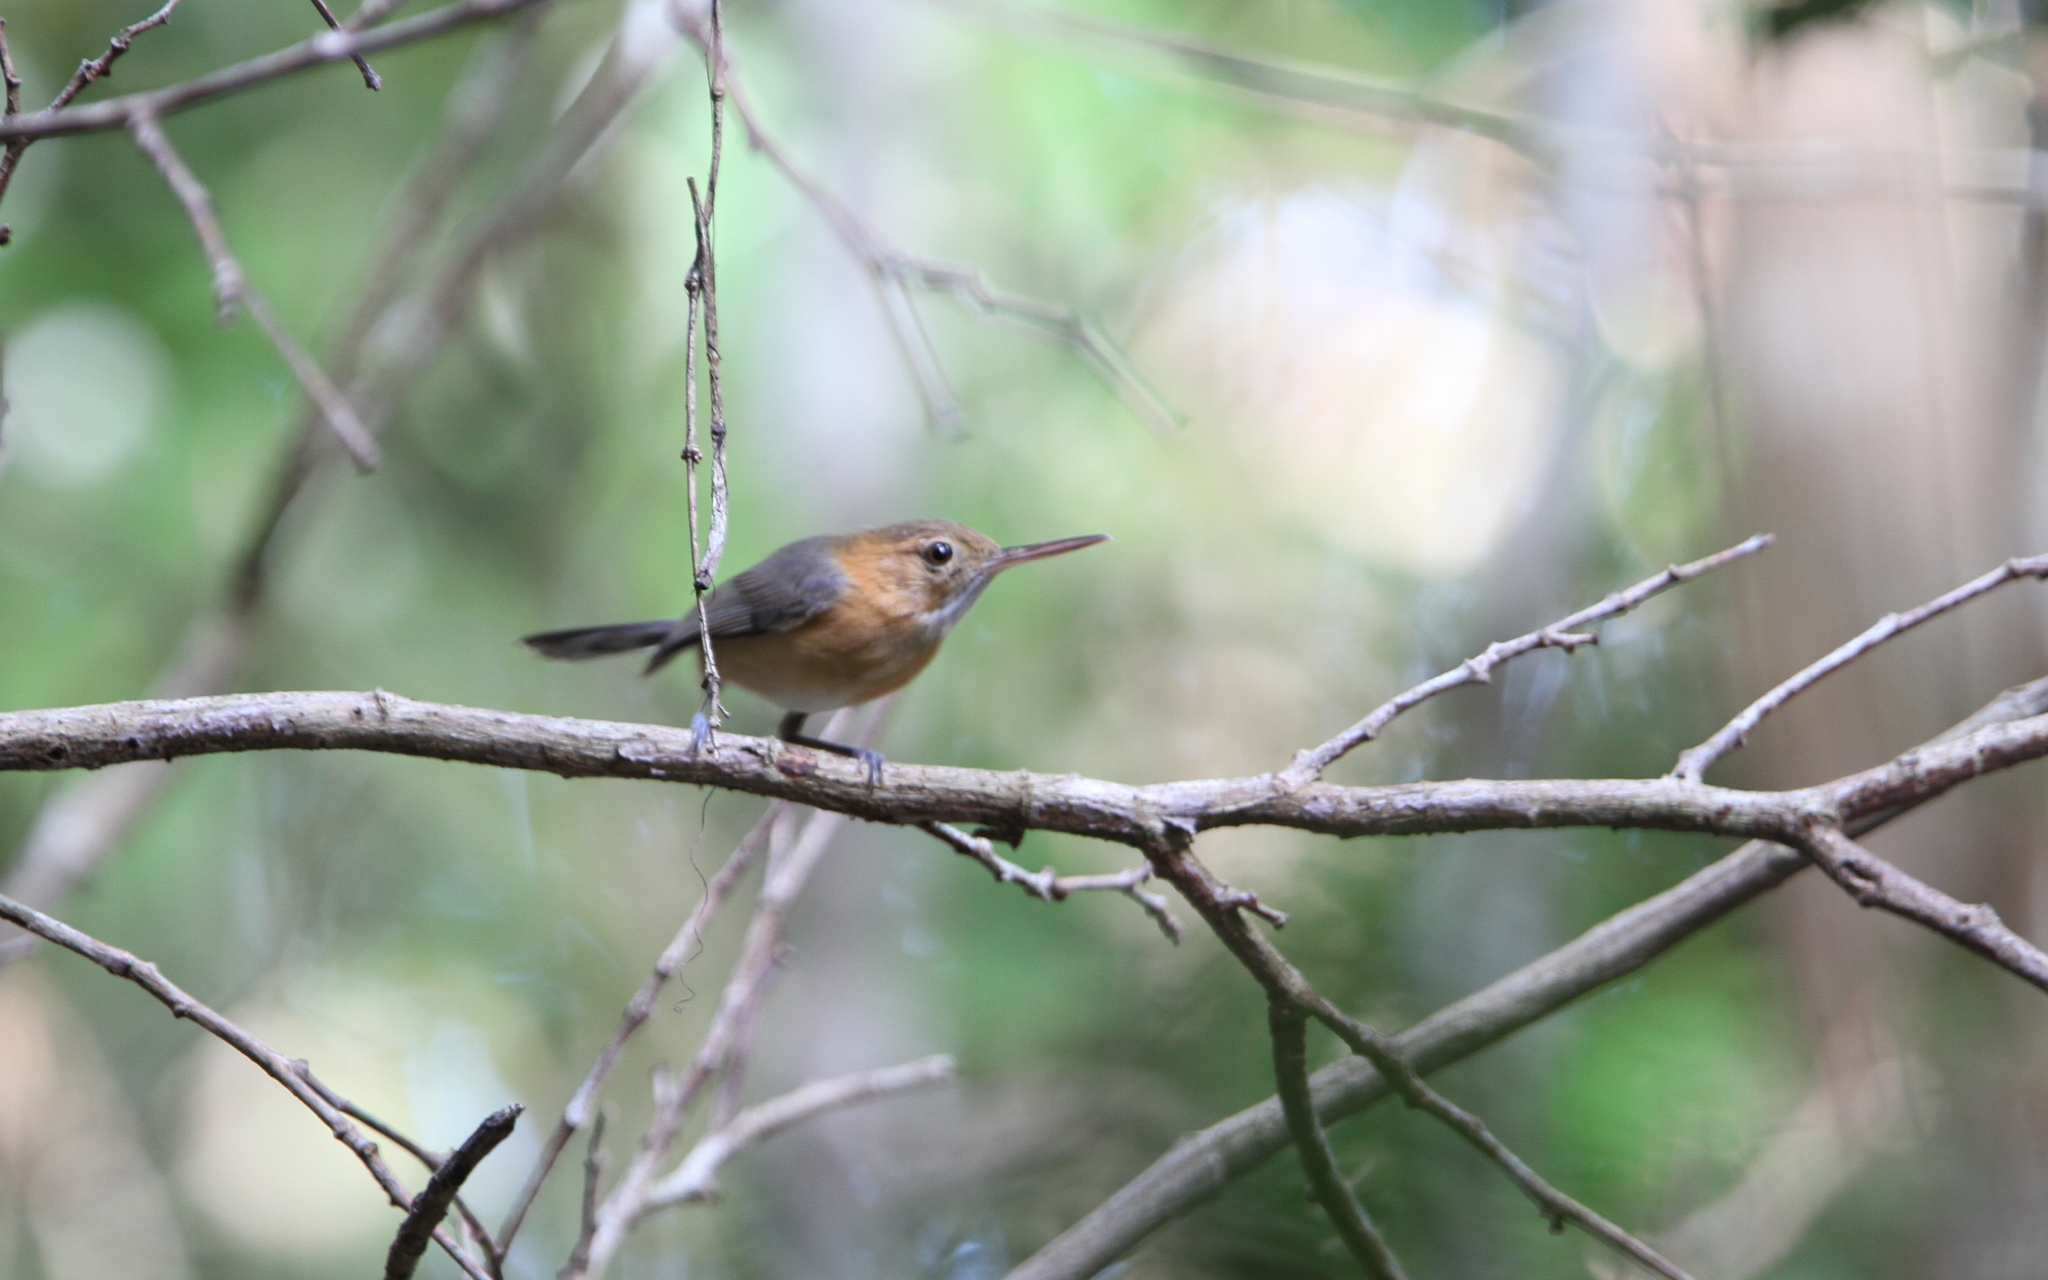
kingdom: Animalia
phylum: Chordata
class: Aves
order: Passeriformes
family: Polioptilidae
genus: Ramphocaenus
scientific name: Ramphocaenus melanurus
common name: Long-billed gnatwren
